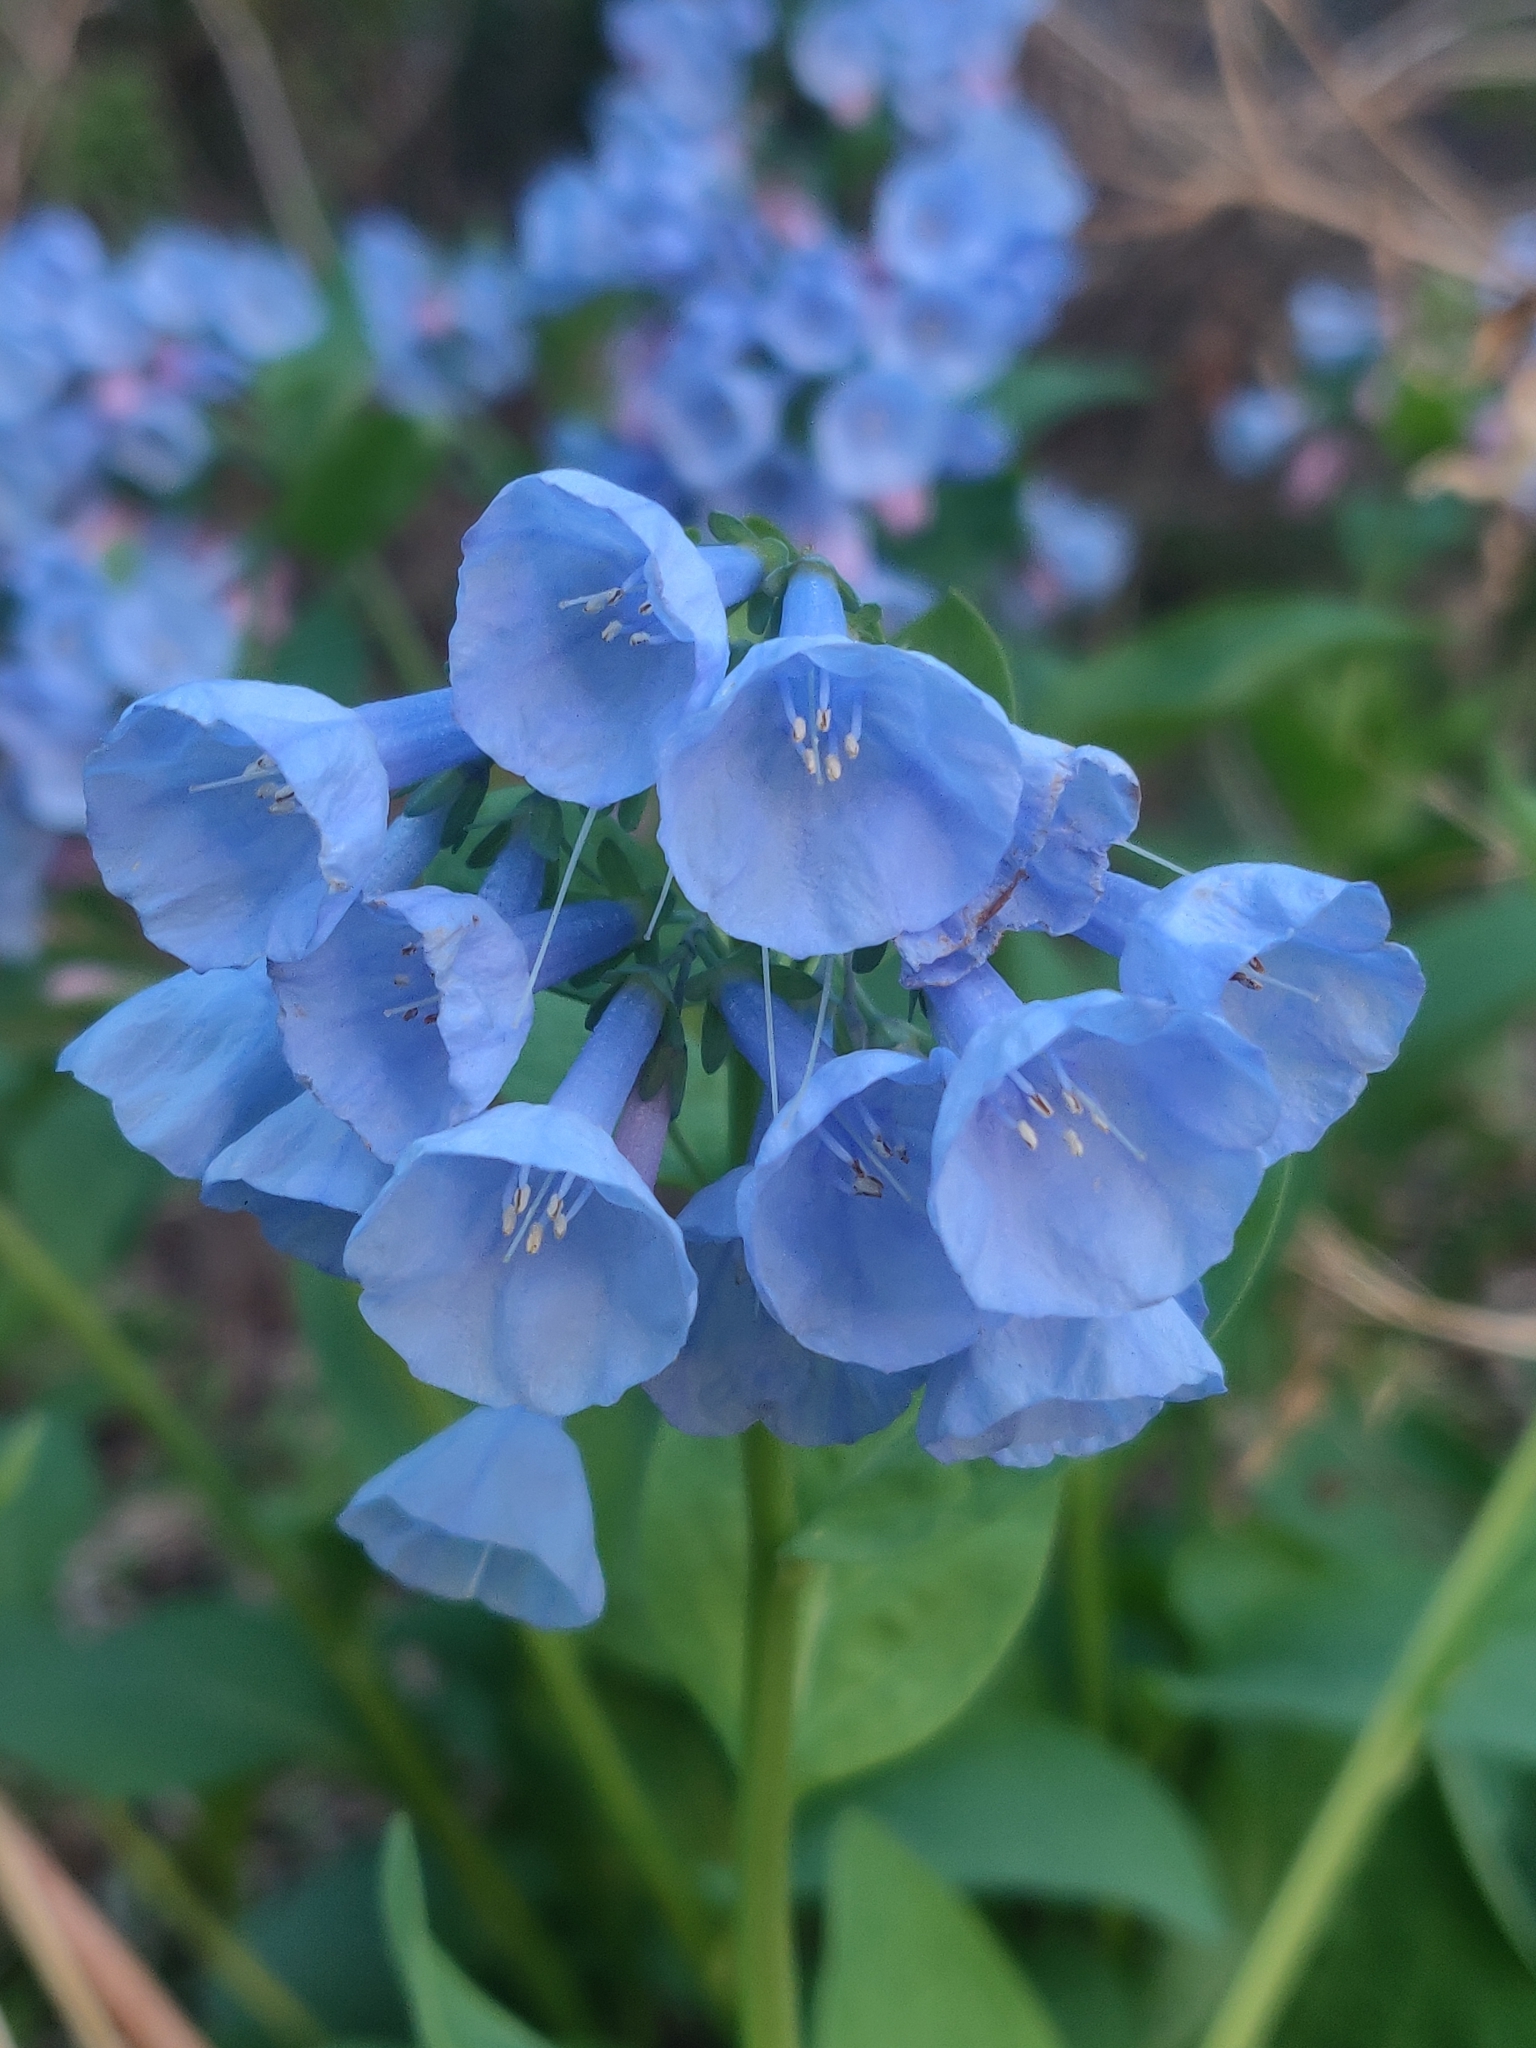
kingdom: Plantae
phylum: Tracheophyta
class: Magnoliopsida
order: Boraginales
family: Boraginaceae
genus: Mertensia
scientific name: Mertensia virginica
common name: Virginia bluebells
